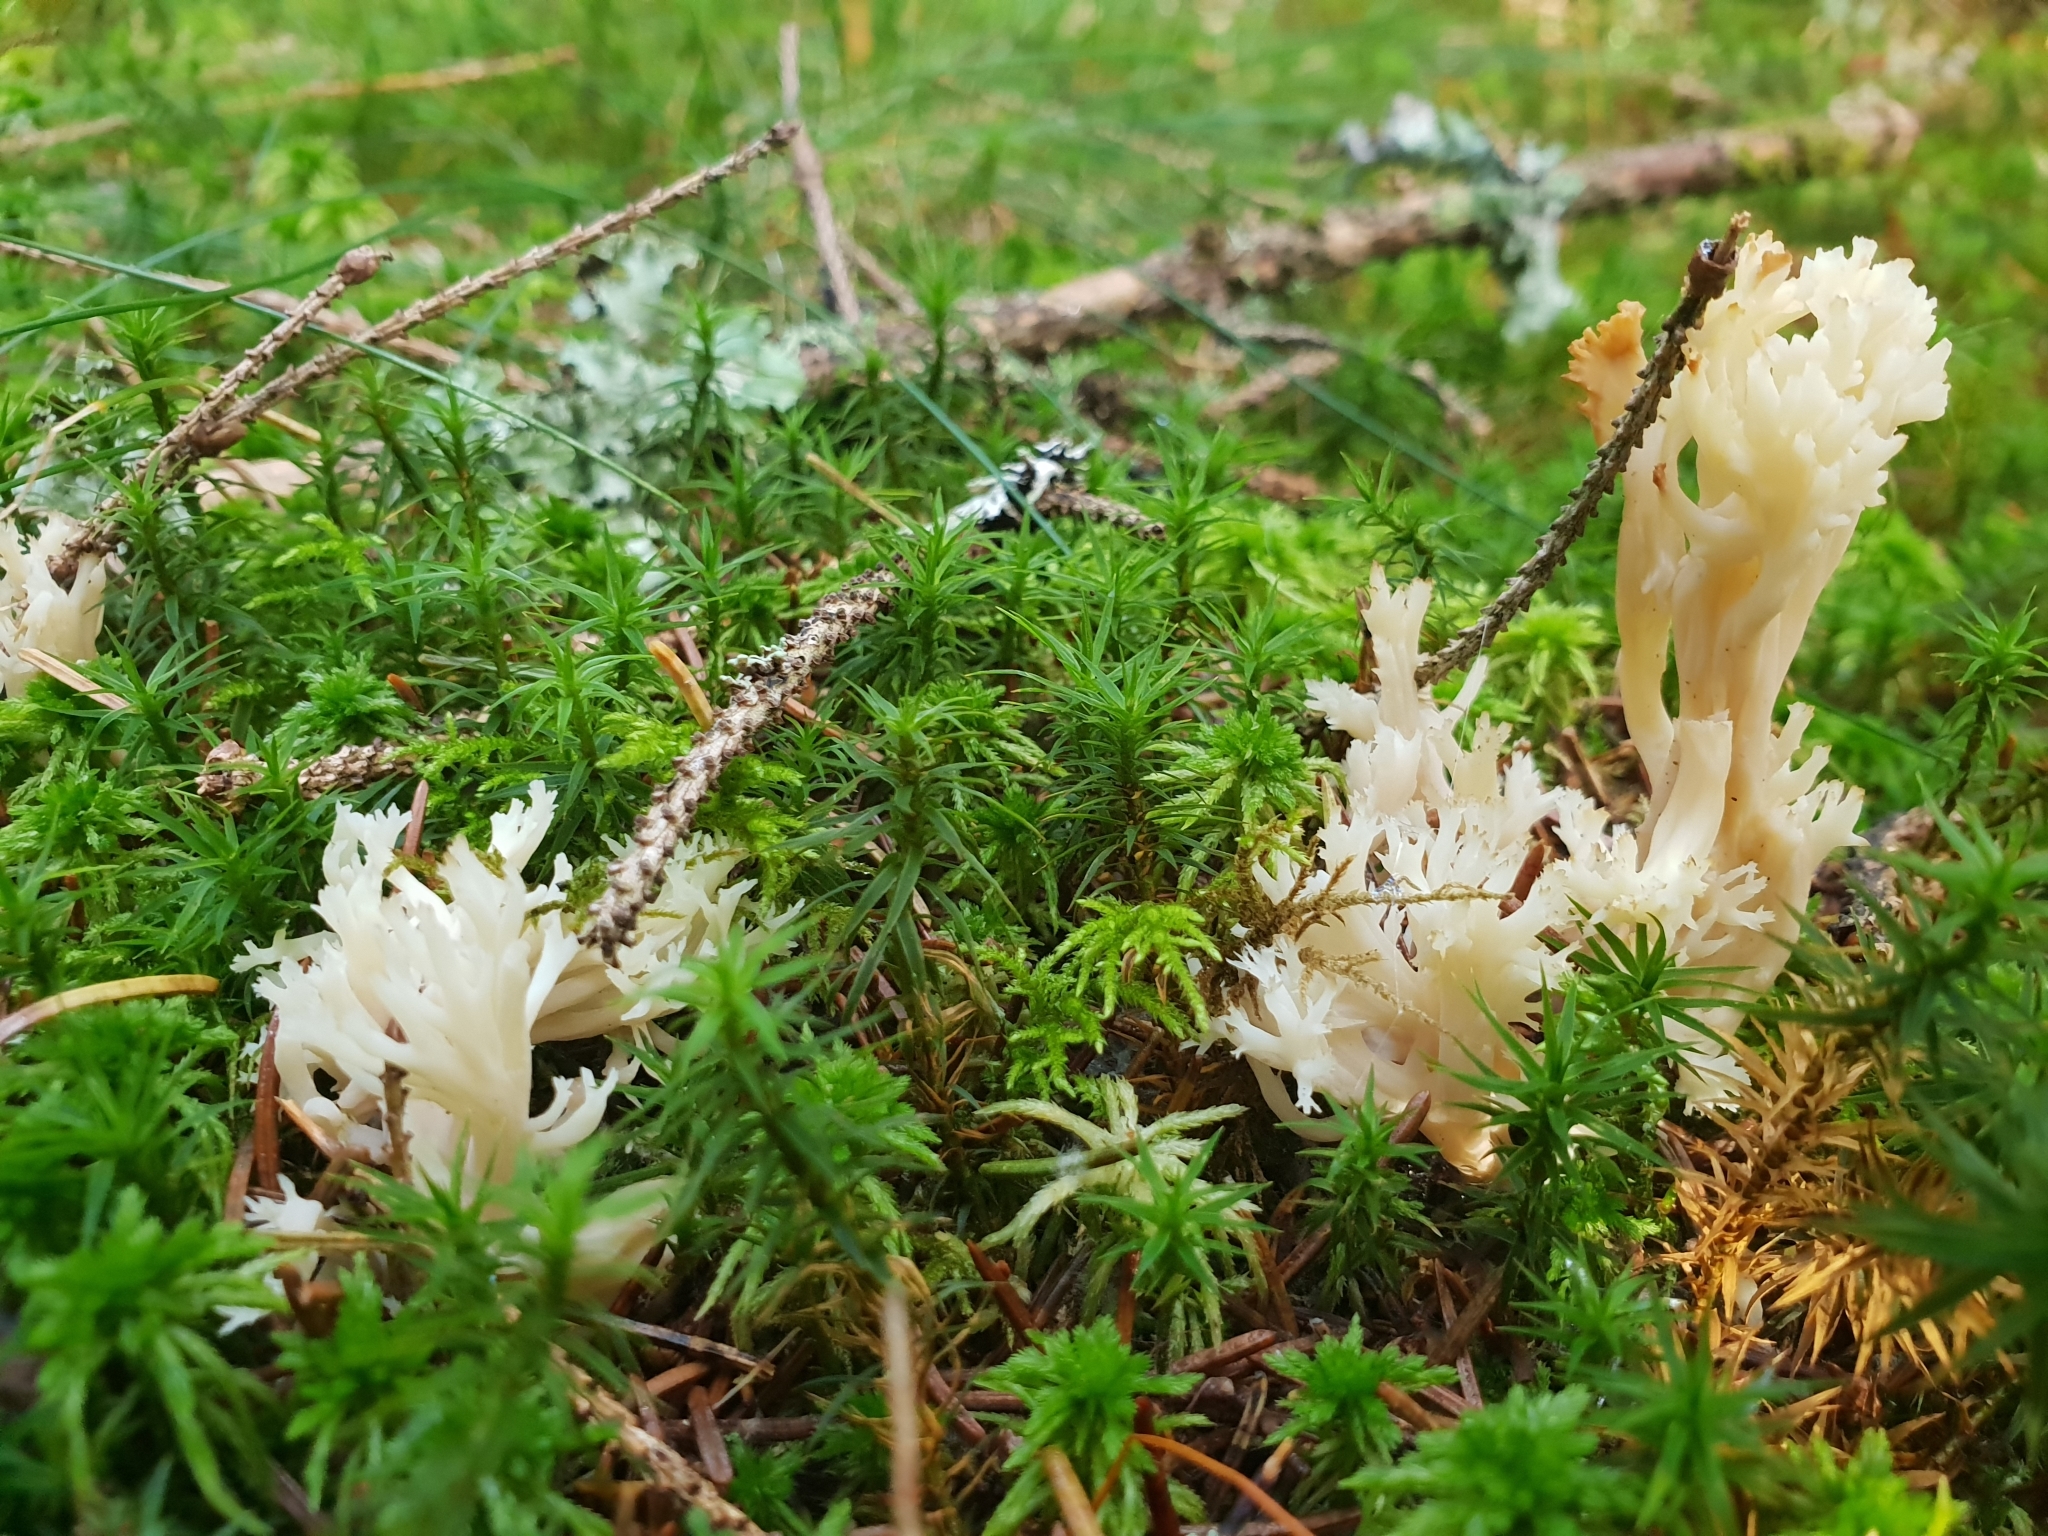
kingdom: Fungi
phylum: Basidiomycota
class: Agaricomycetes
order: Cantharellales
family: Hydnaceae
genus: Clavulina
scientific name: Clavulina coralloides
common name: Crested coral
